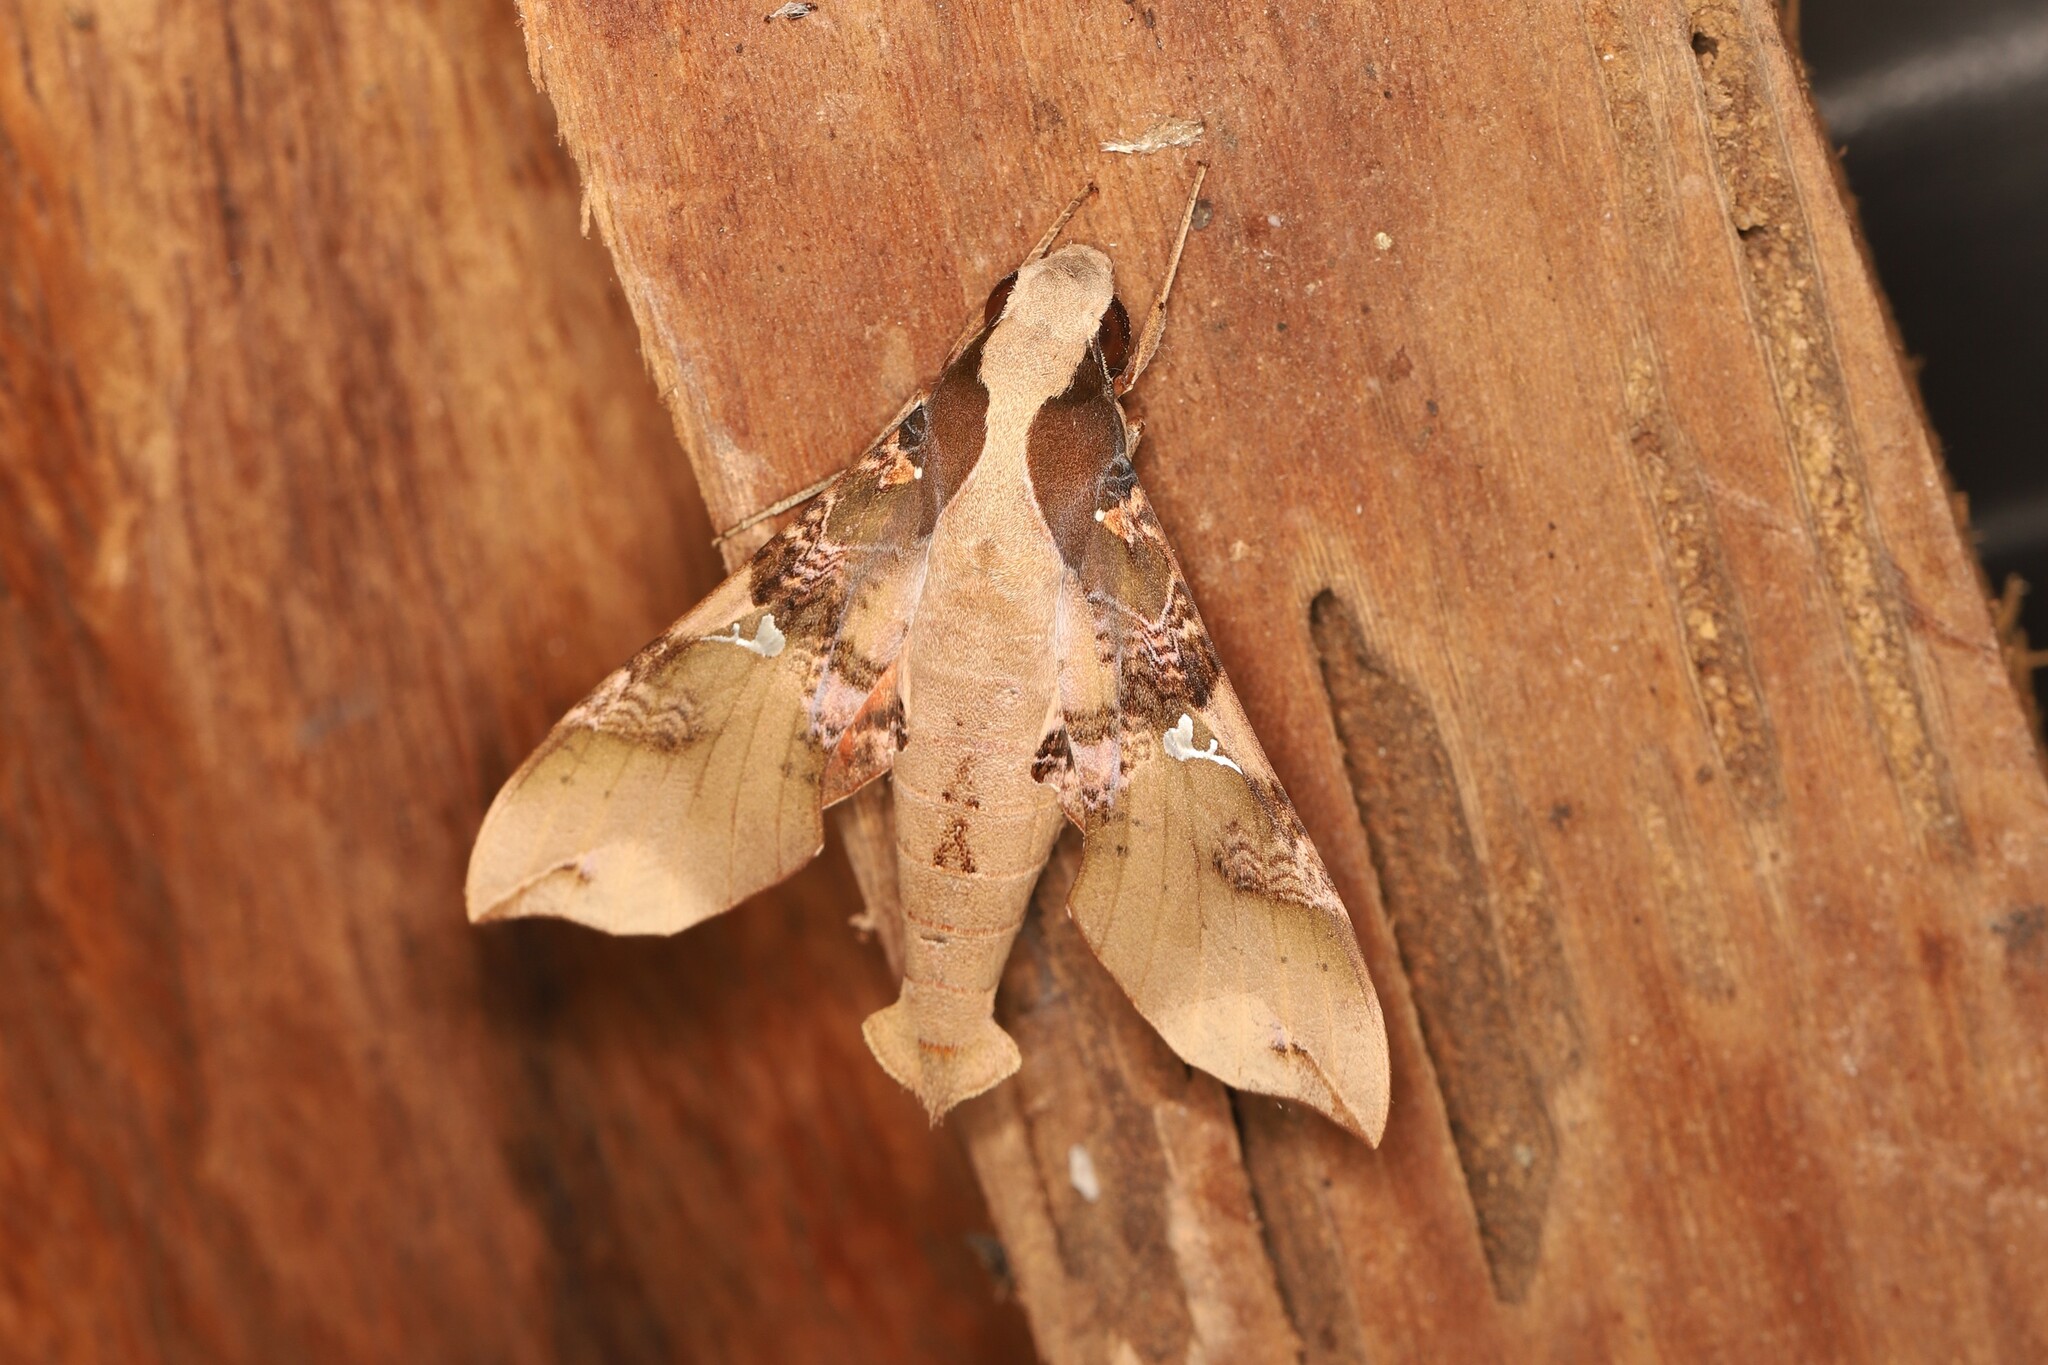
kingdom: Animalia
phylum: Arthropoda
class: Insecta
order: Lepidoptera
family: Sphingidae
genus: Callionima
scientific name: Callionima parce
